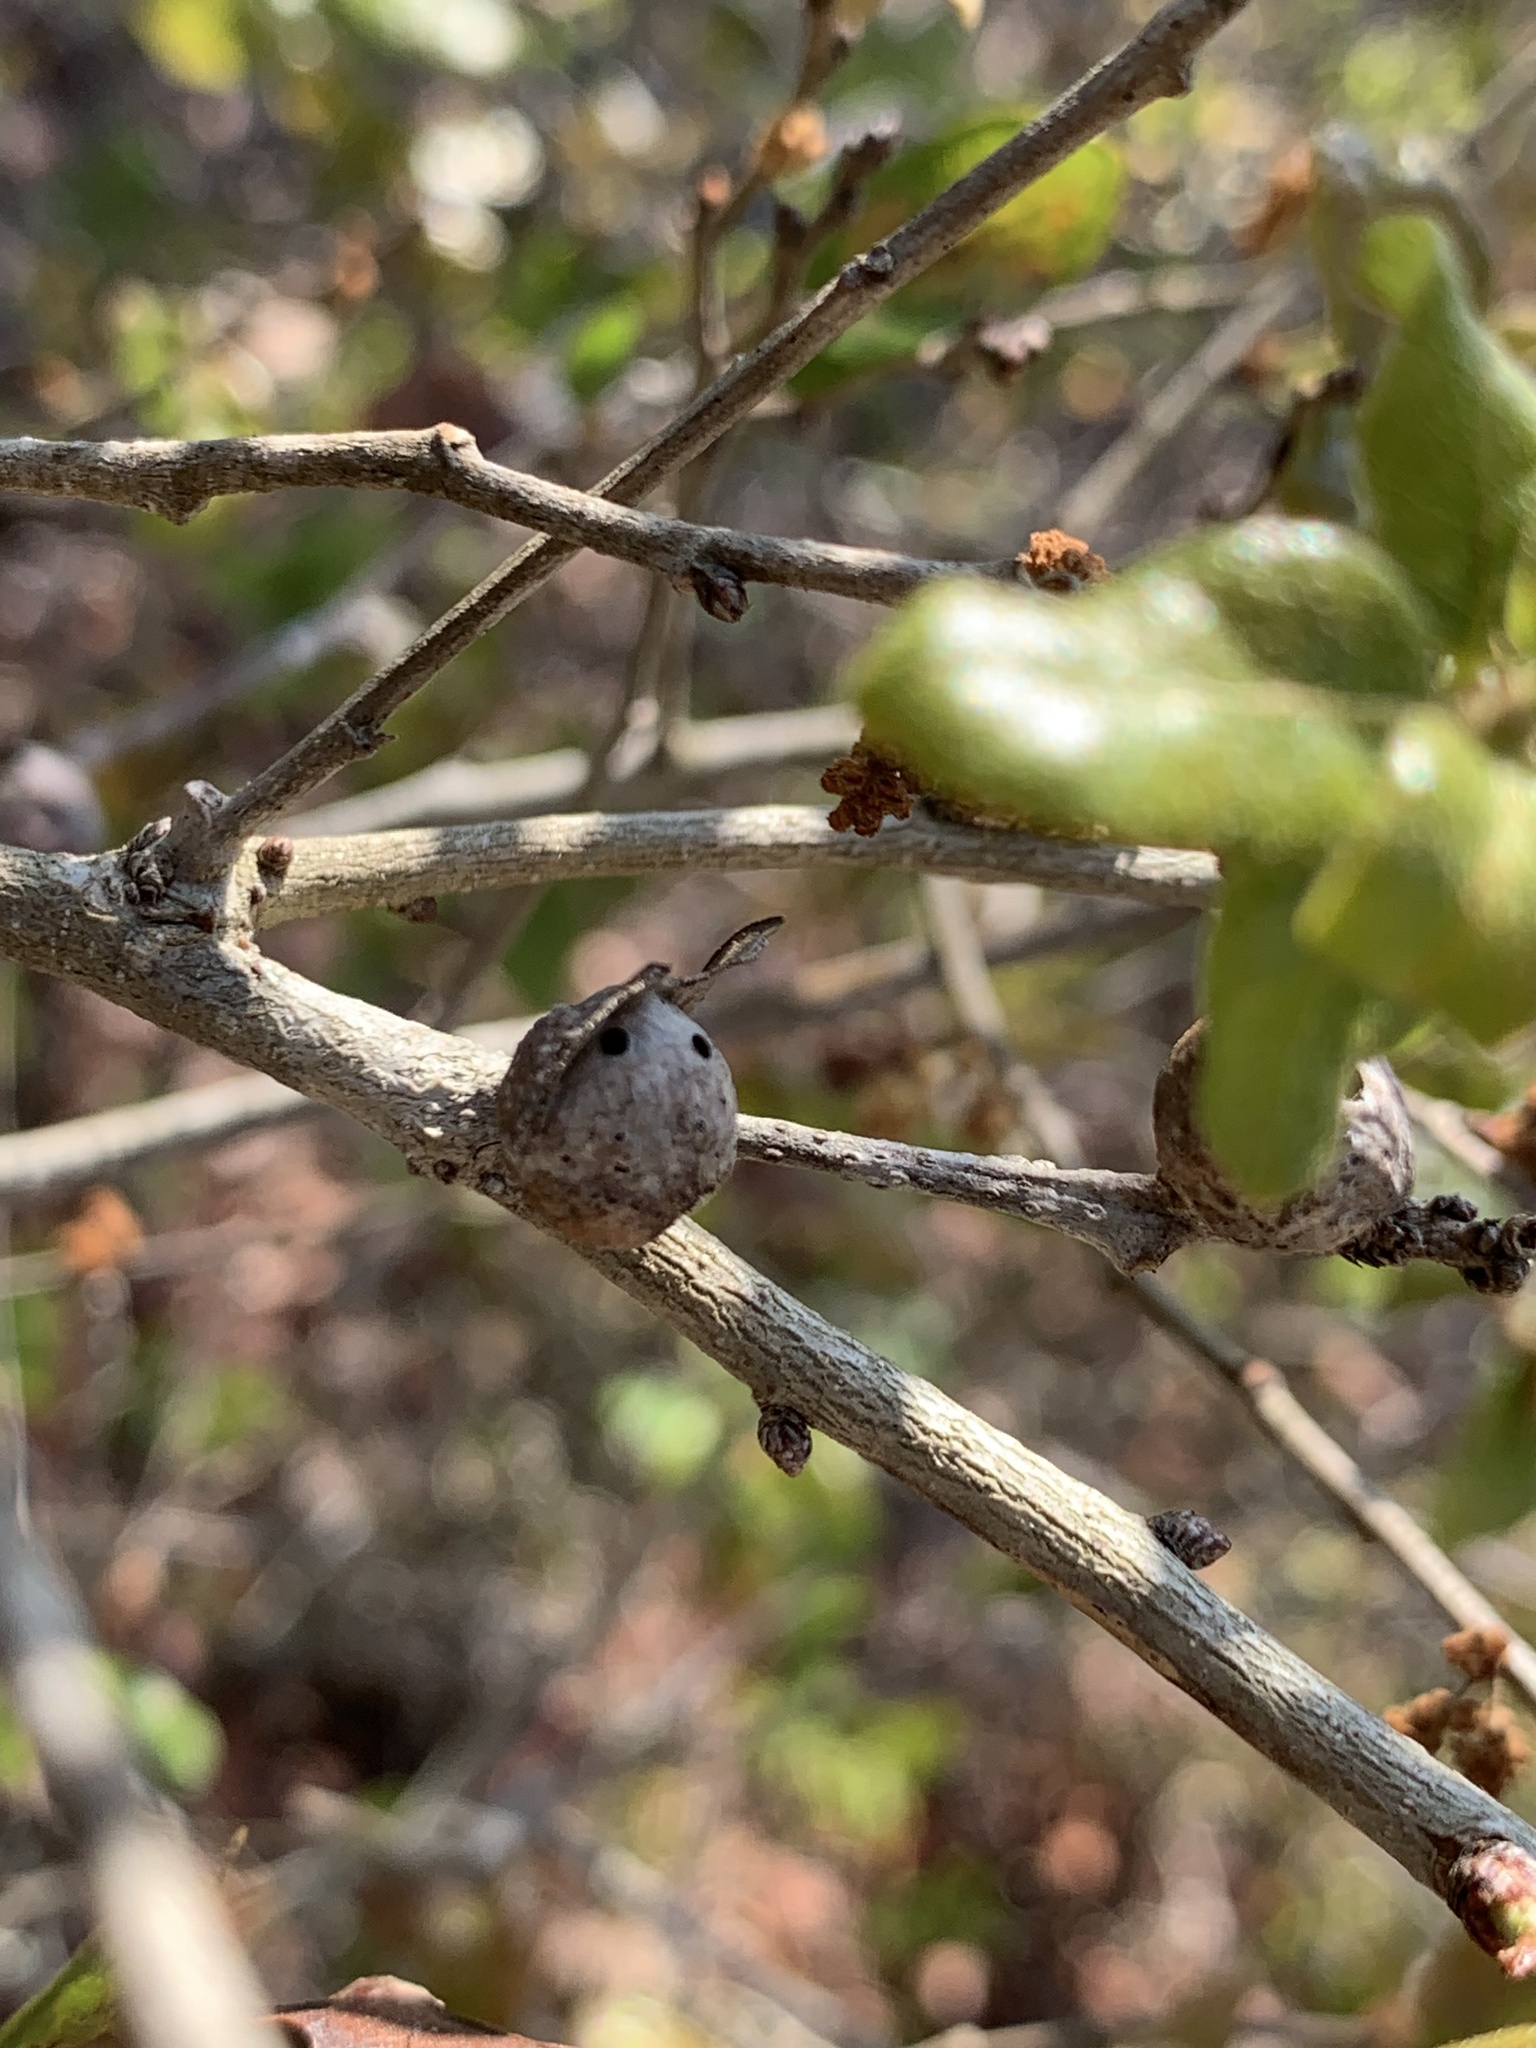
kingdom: Animalia
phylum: Arthropoda
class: Insecta
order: Hymenoptera
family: Cynipidae
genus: Andricus
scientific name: Andricus
